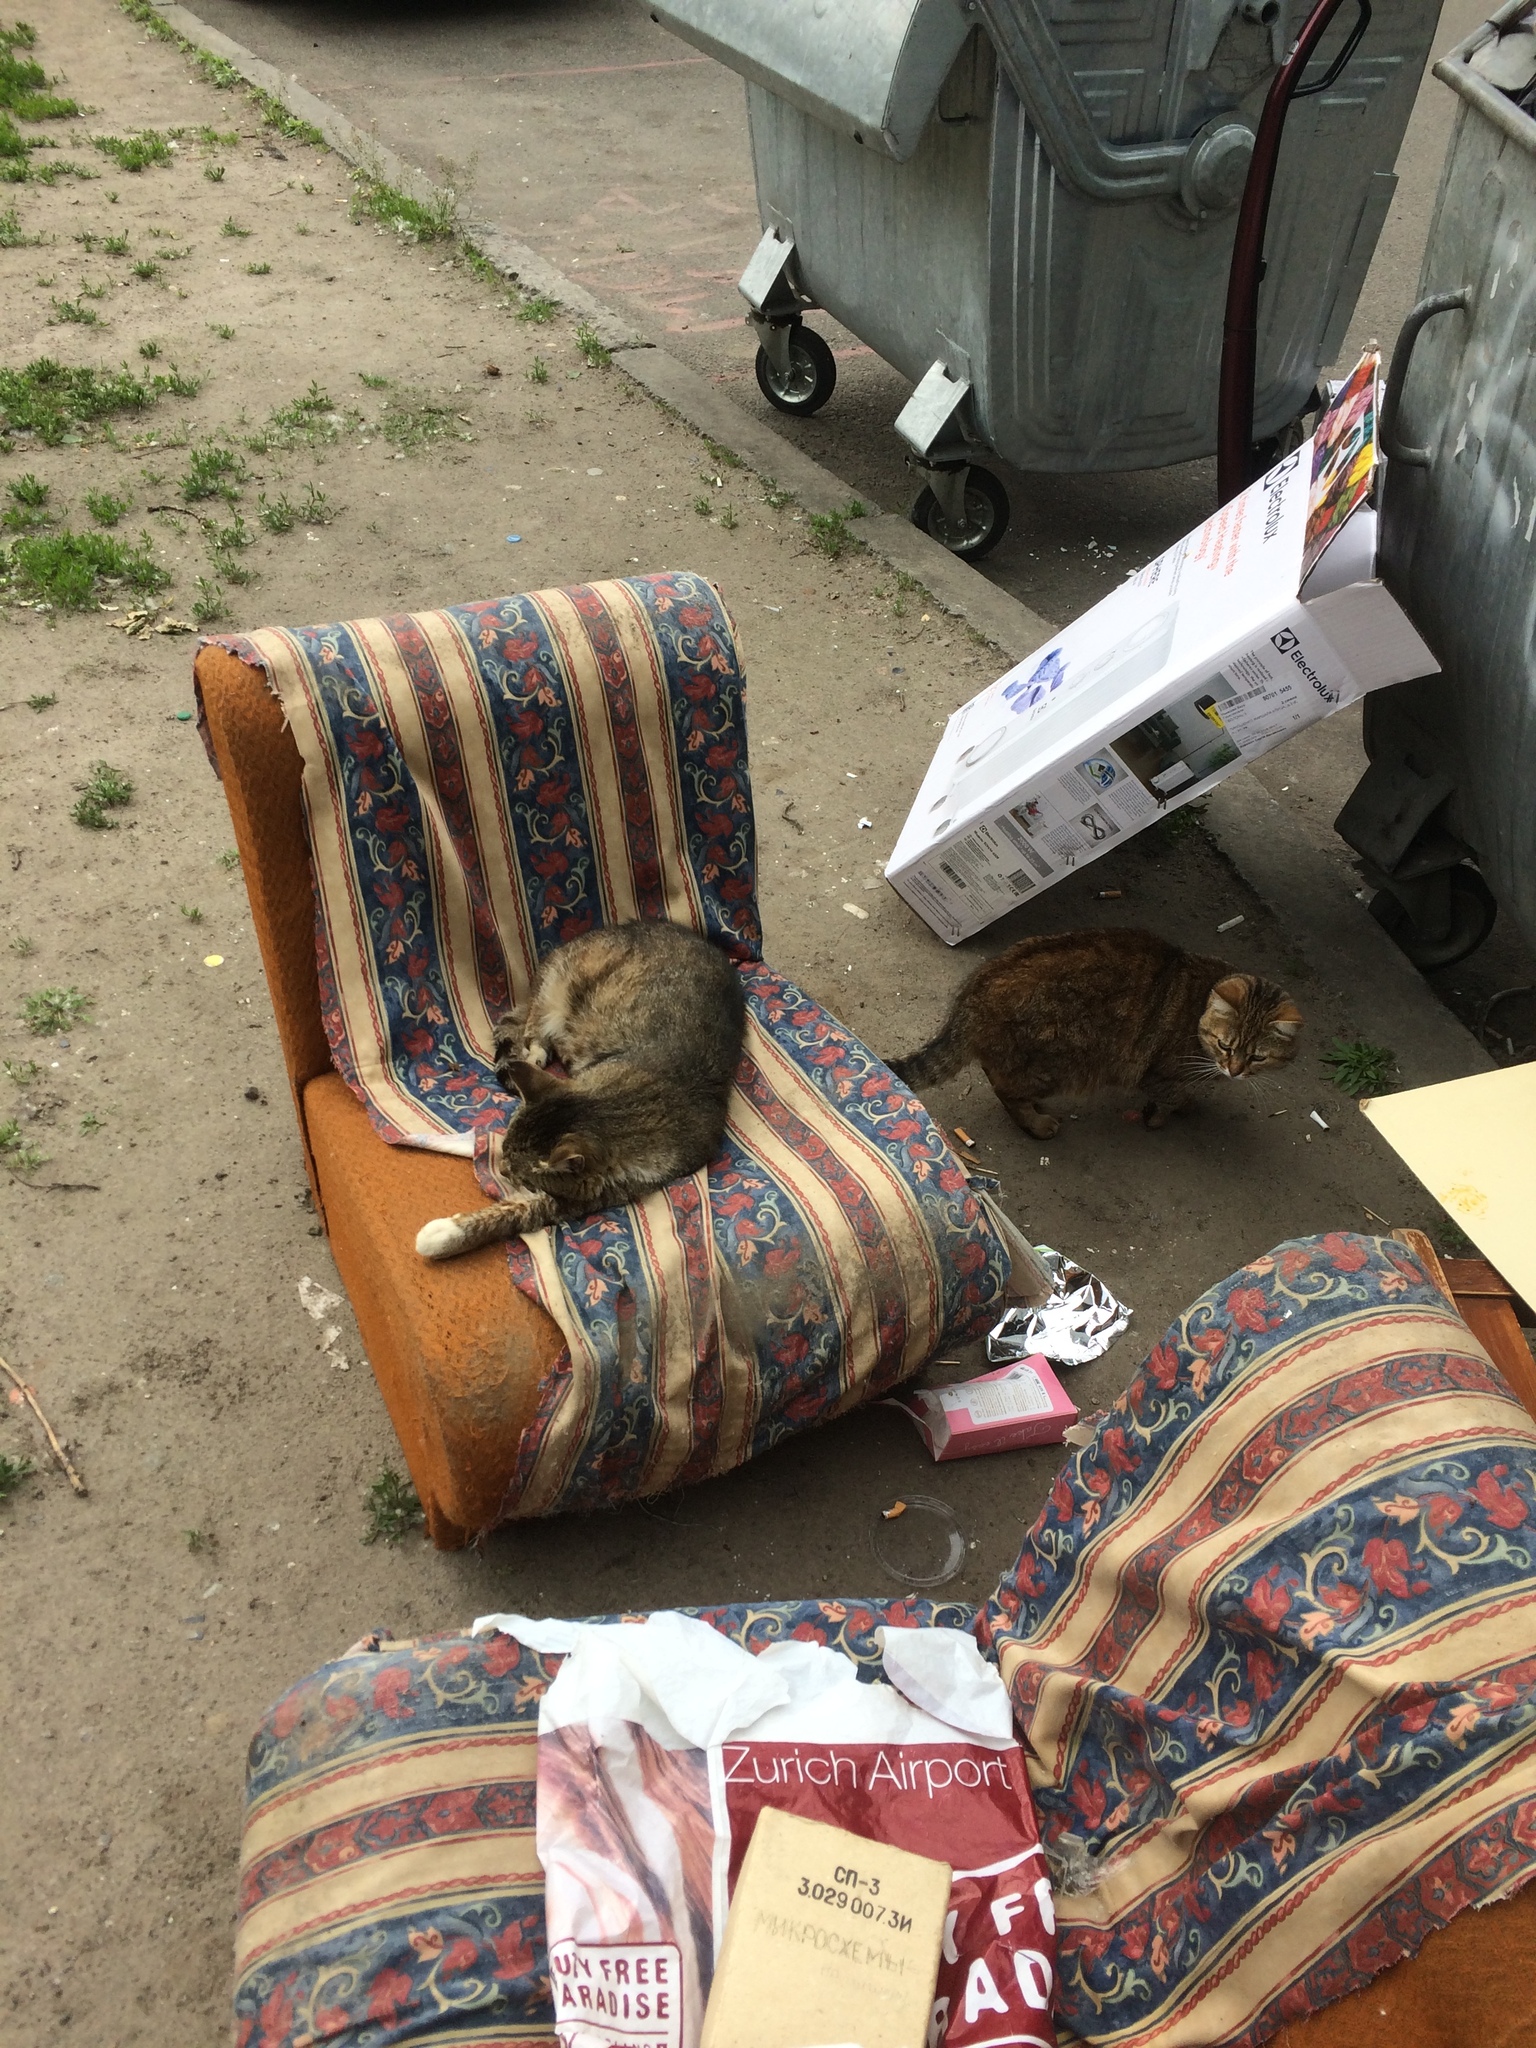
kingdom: Animalia
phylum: Chordata
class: Mammalia
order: Carnivora
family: Felidae
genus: Felis
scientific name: Felis catus
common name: Domestic cat
